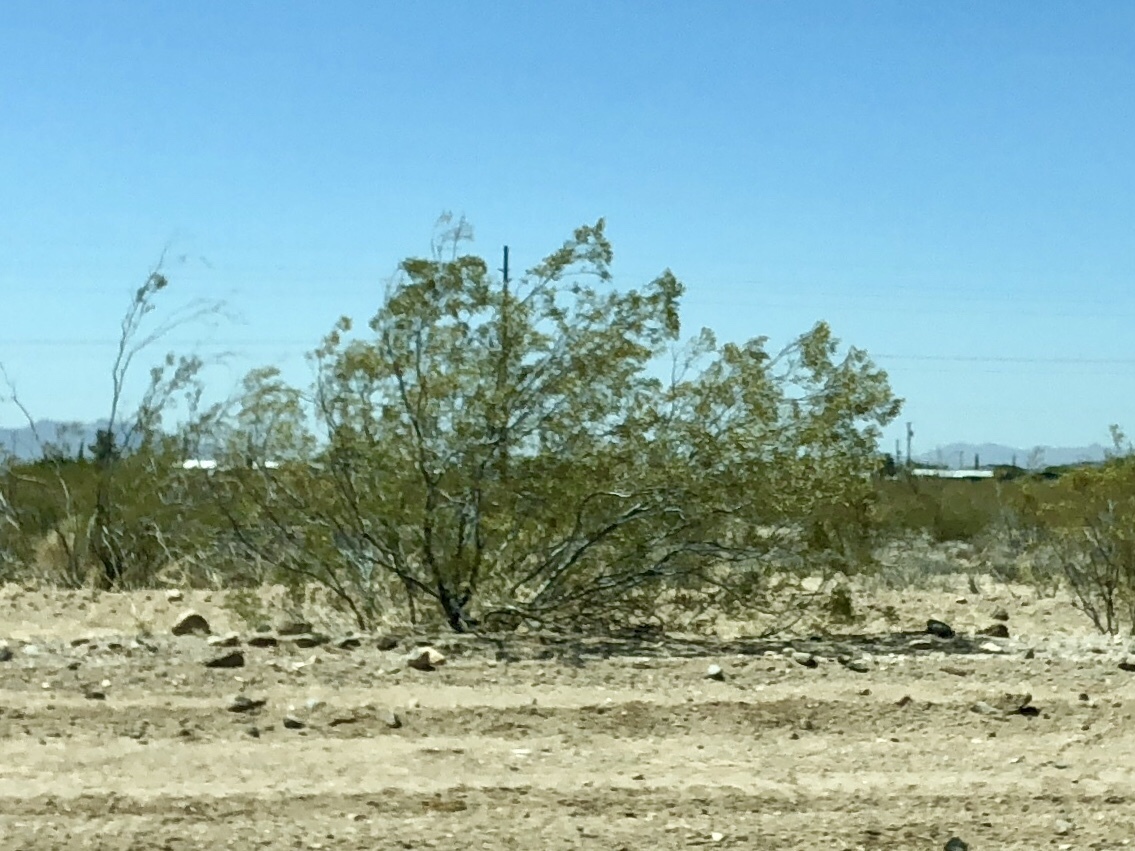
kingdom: Plantae
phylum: Tracheophyta
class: Magnoliopsida
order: Zygophyllales
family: Zygophyllaceae
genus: Larrea
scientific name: Larrea tridentata
